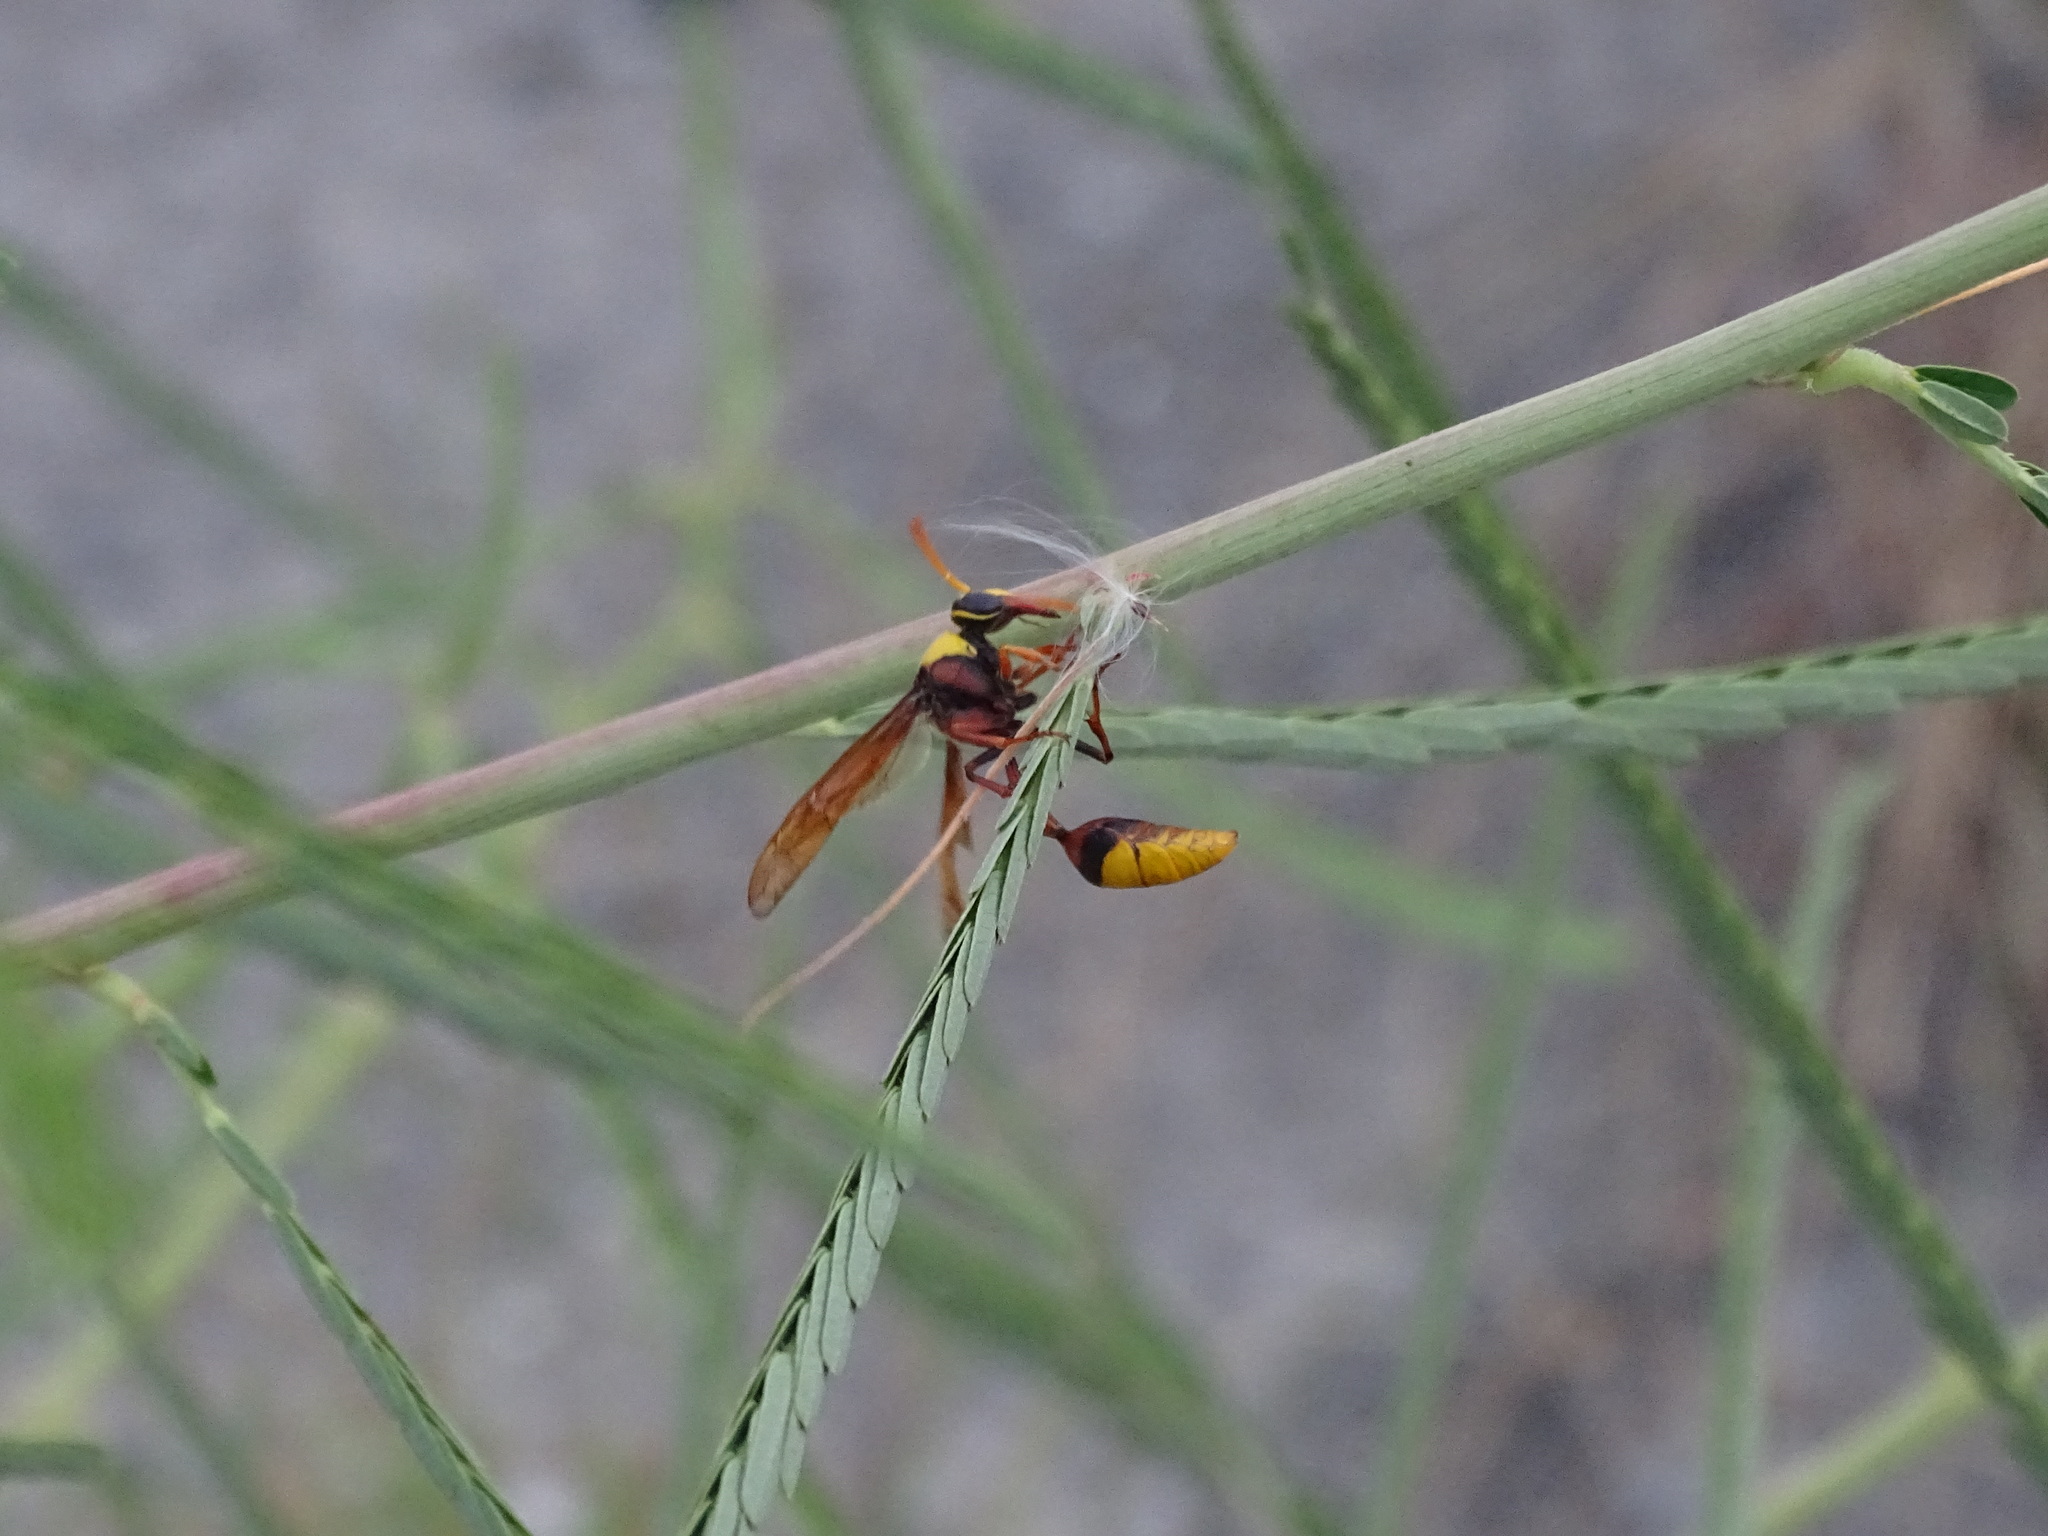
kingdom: Animalia
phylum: Arthropoda
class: Insecta
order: Hymenoptera
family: Eumenidae
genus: Delta
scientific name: Delta pyriforme
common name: Wasp
